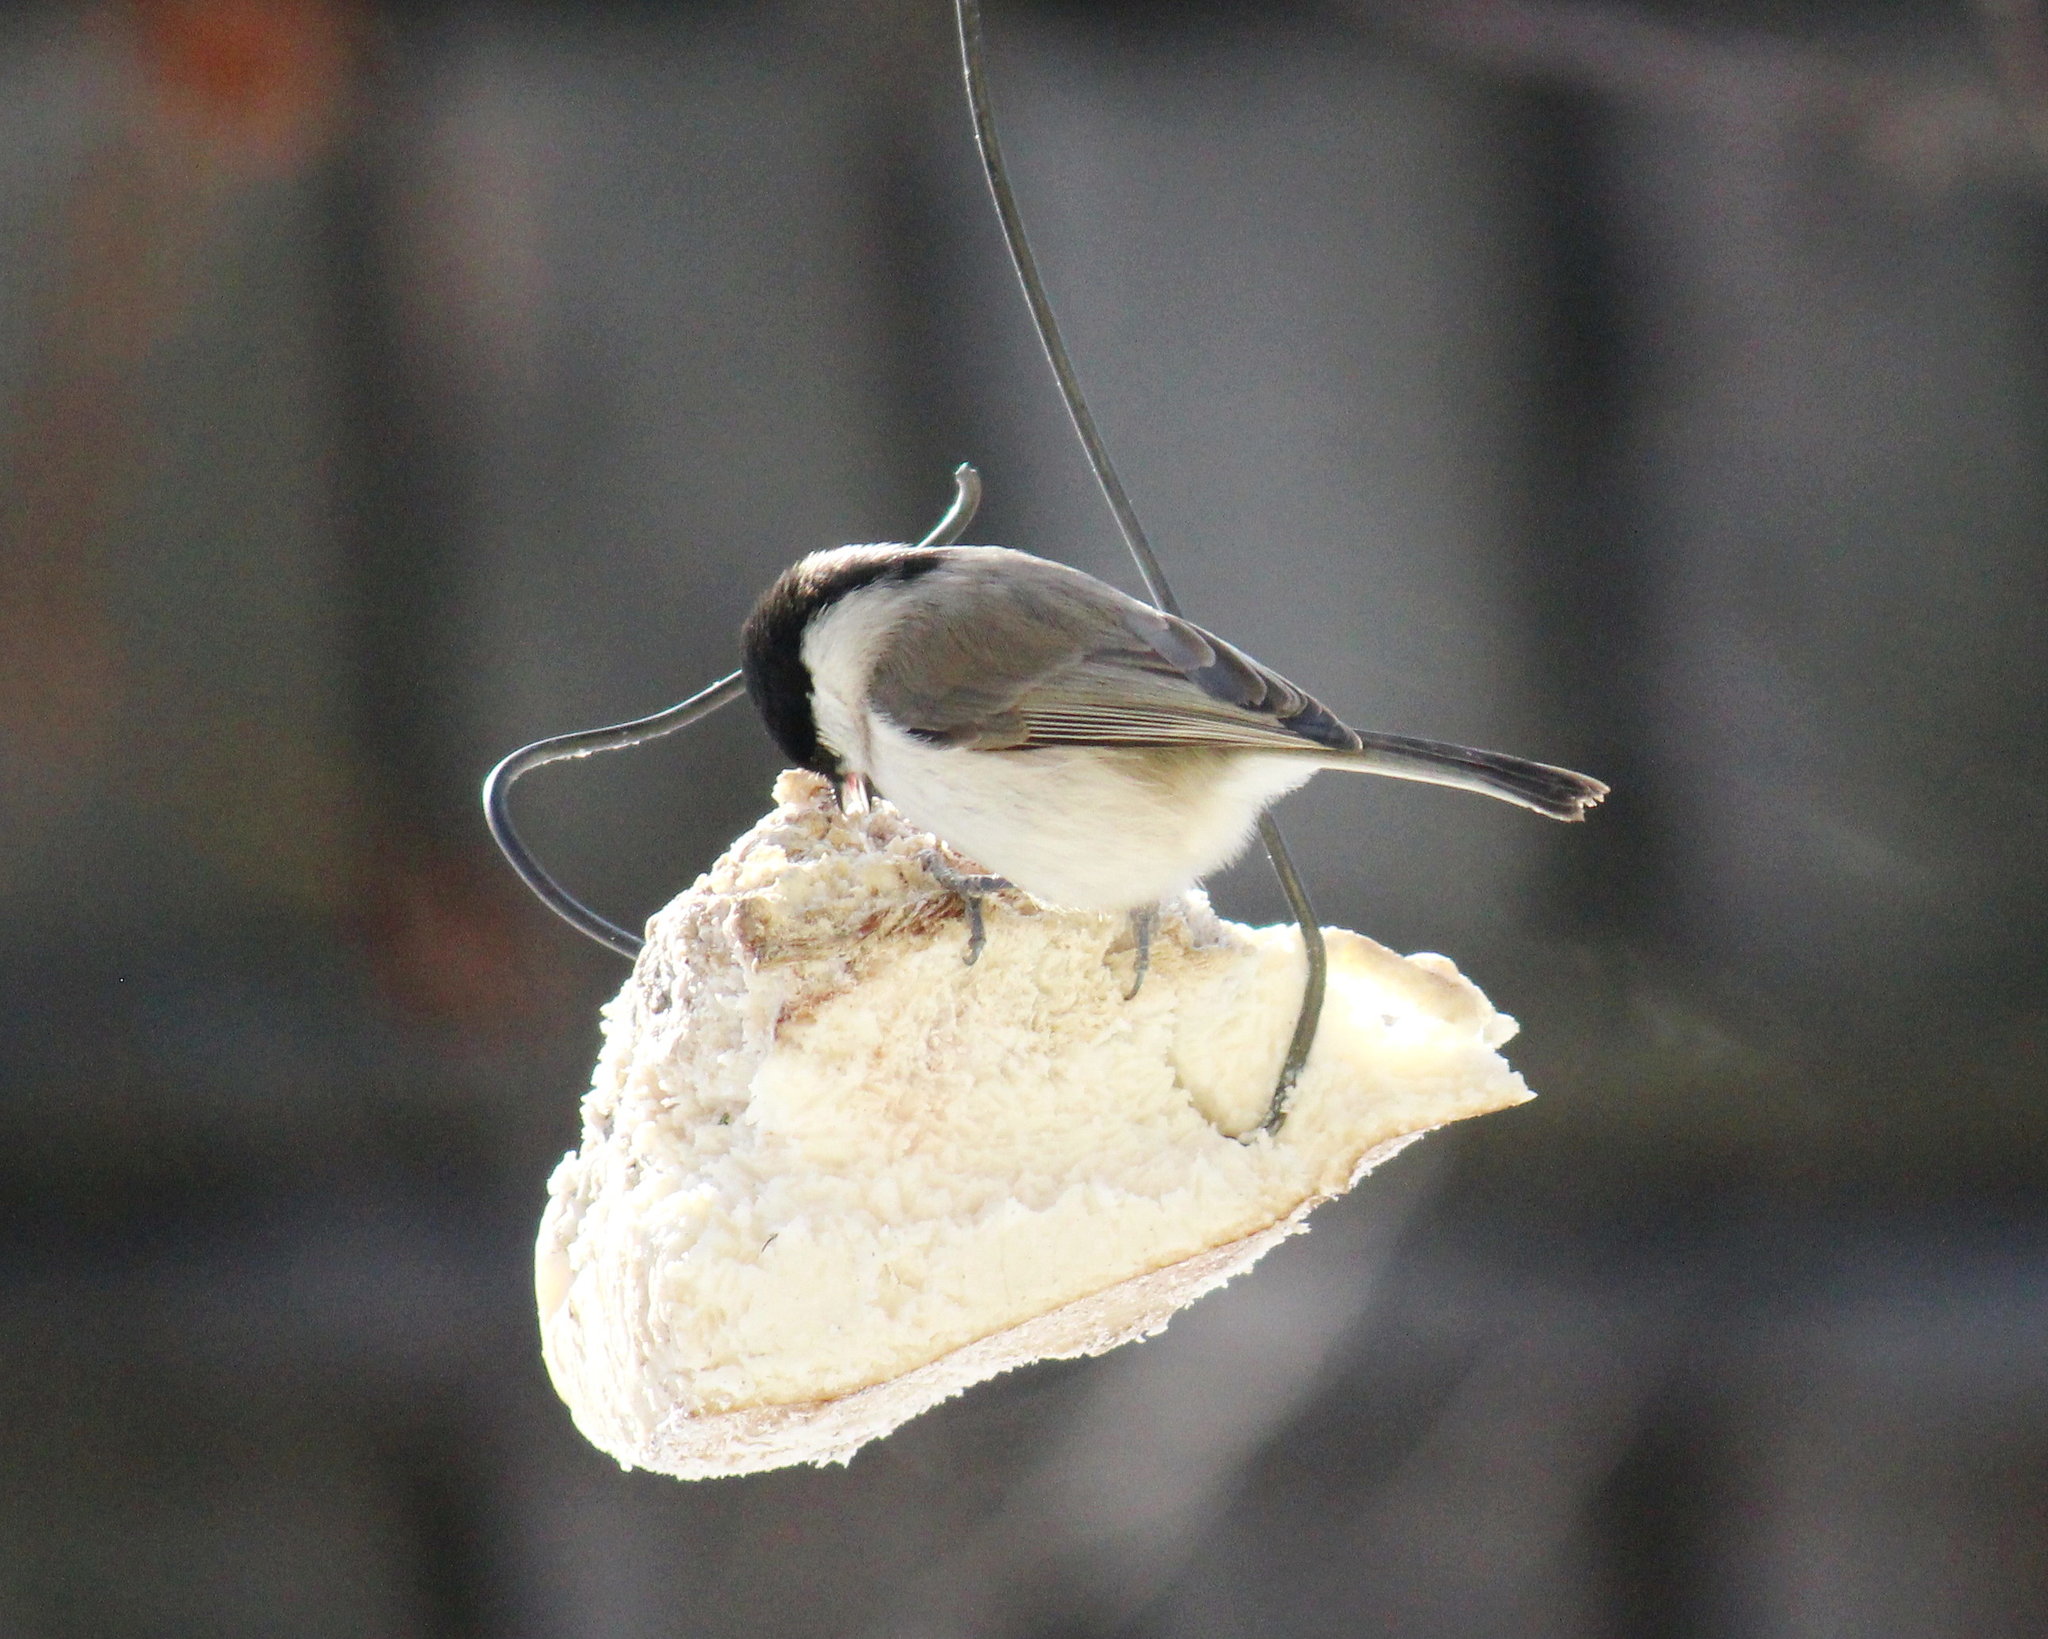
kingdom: Animalia
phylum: Chordata
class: Aves
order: Passeriformes
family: Paridae
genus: Poecile
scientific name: Poecile palustris
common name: Marsh tit
